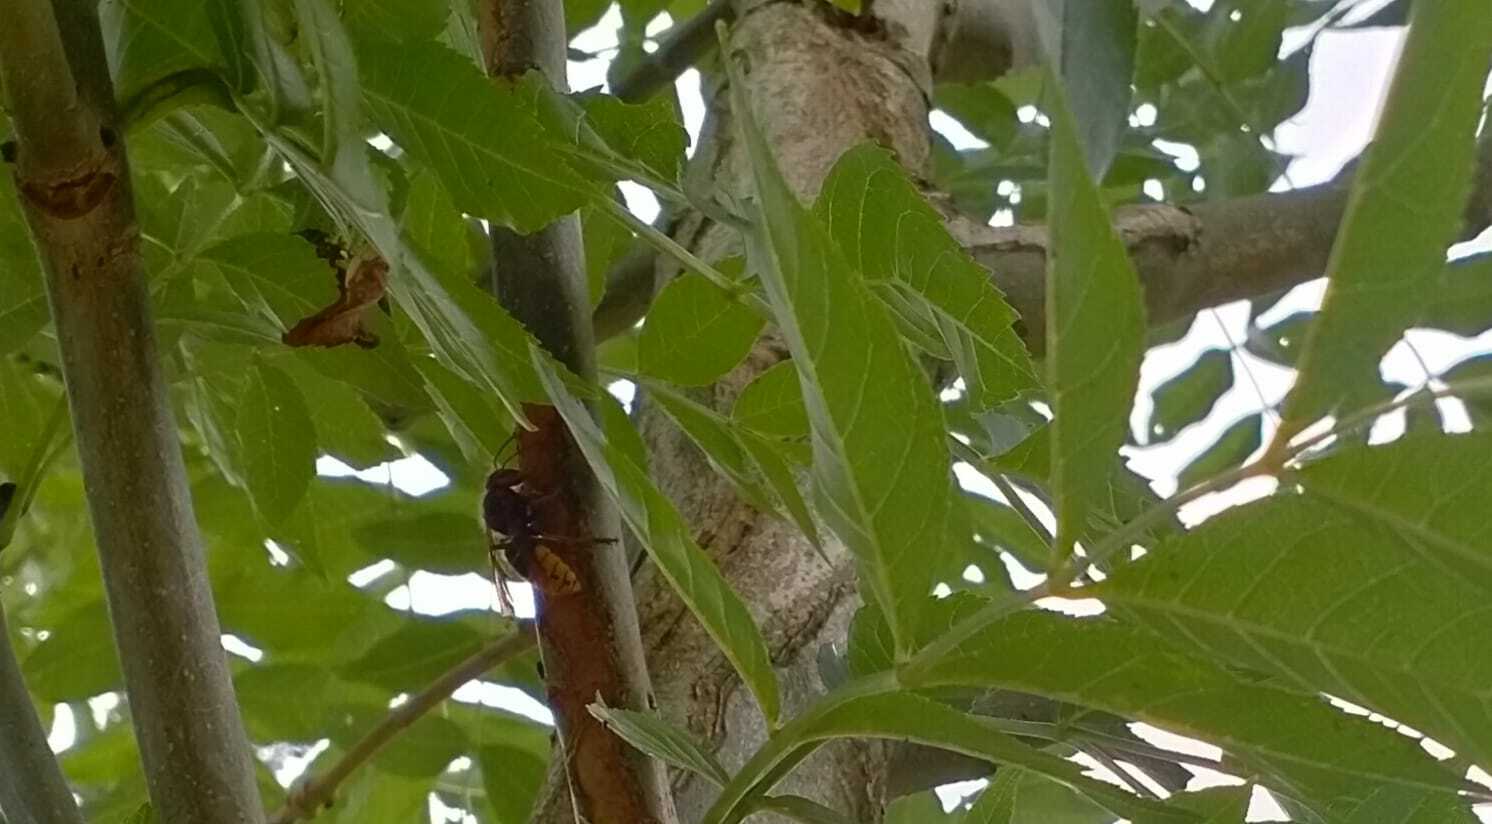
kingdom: Animalia
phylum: Arthropoda
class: Insecta
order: Hymenoptera
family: Vespidae
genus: Vespa
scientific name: Vespa crabro
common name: Hornet
